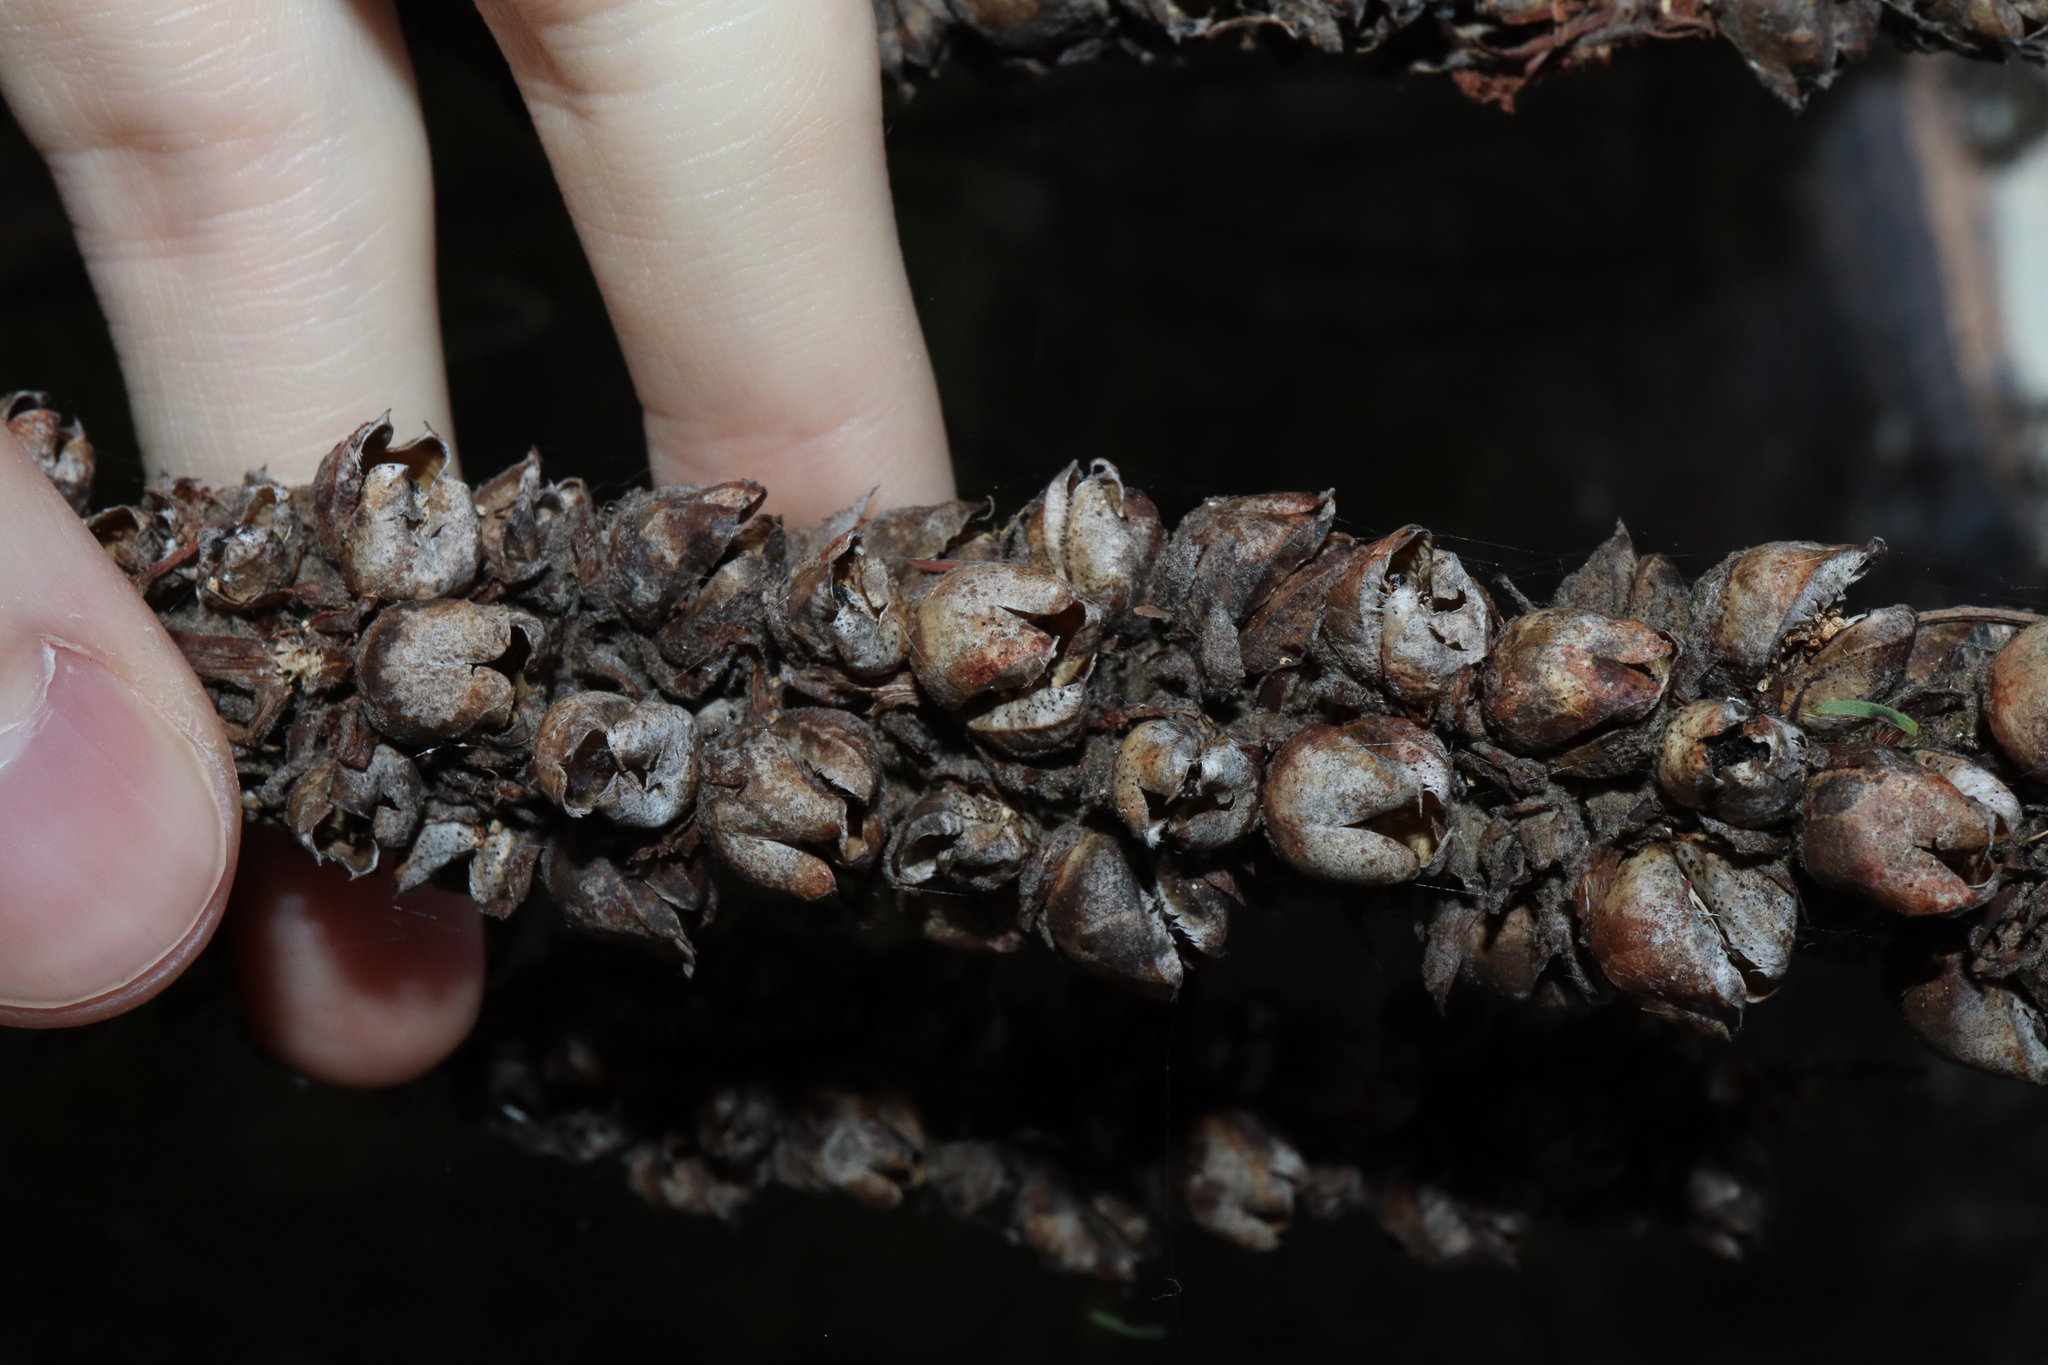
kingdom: Plantae
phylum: Tracheophyta
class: Magnoliopsida
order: Lamiales
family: Scrophulariaceae
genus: Verbascum
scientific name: Verbascum thapsus
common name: Common mullein
